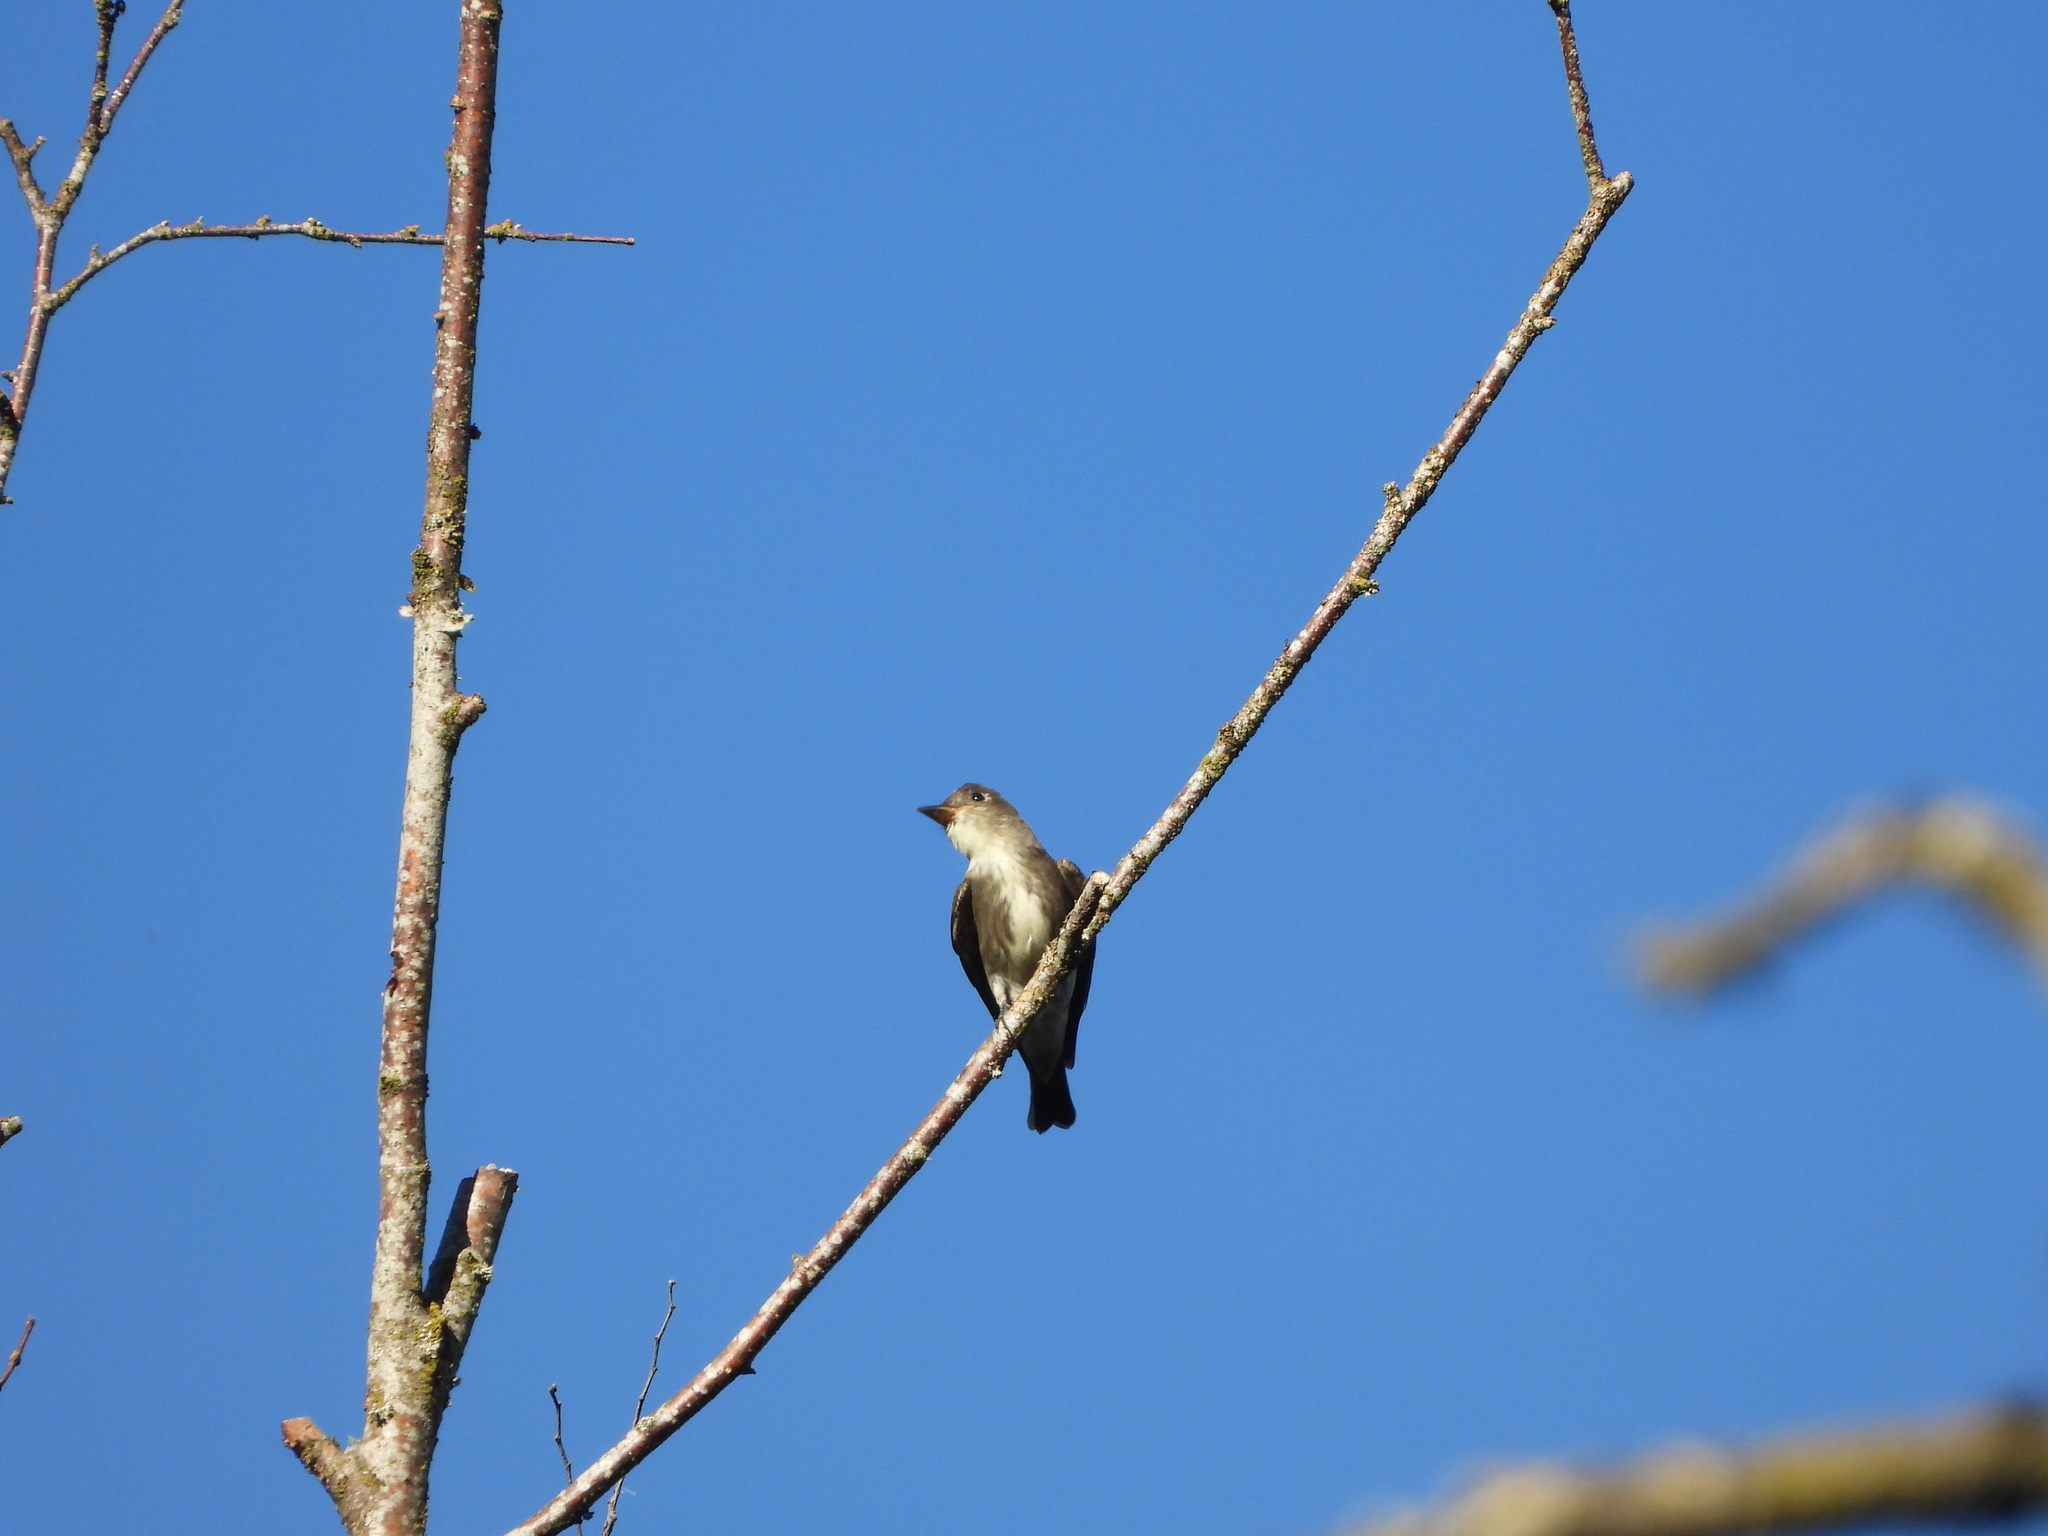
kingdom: Animalia
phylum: Chordata
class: Aves
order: Passeriformes
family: Tyrannidae
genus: Contopus
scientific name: Contopus cooperi
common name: Olive-sided flycatcher
